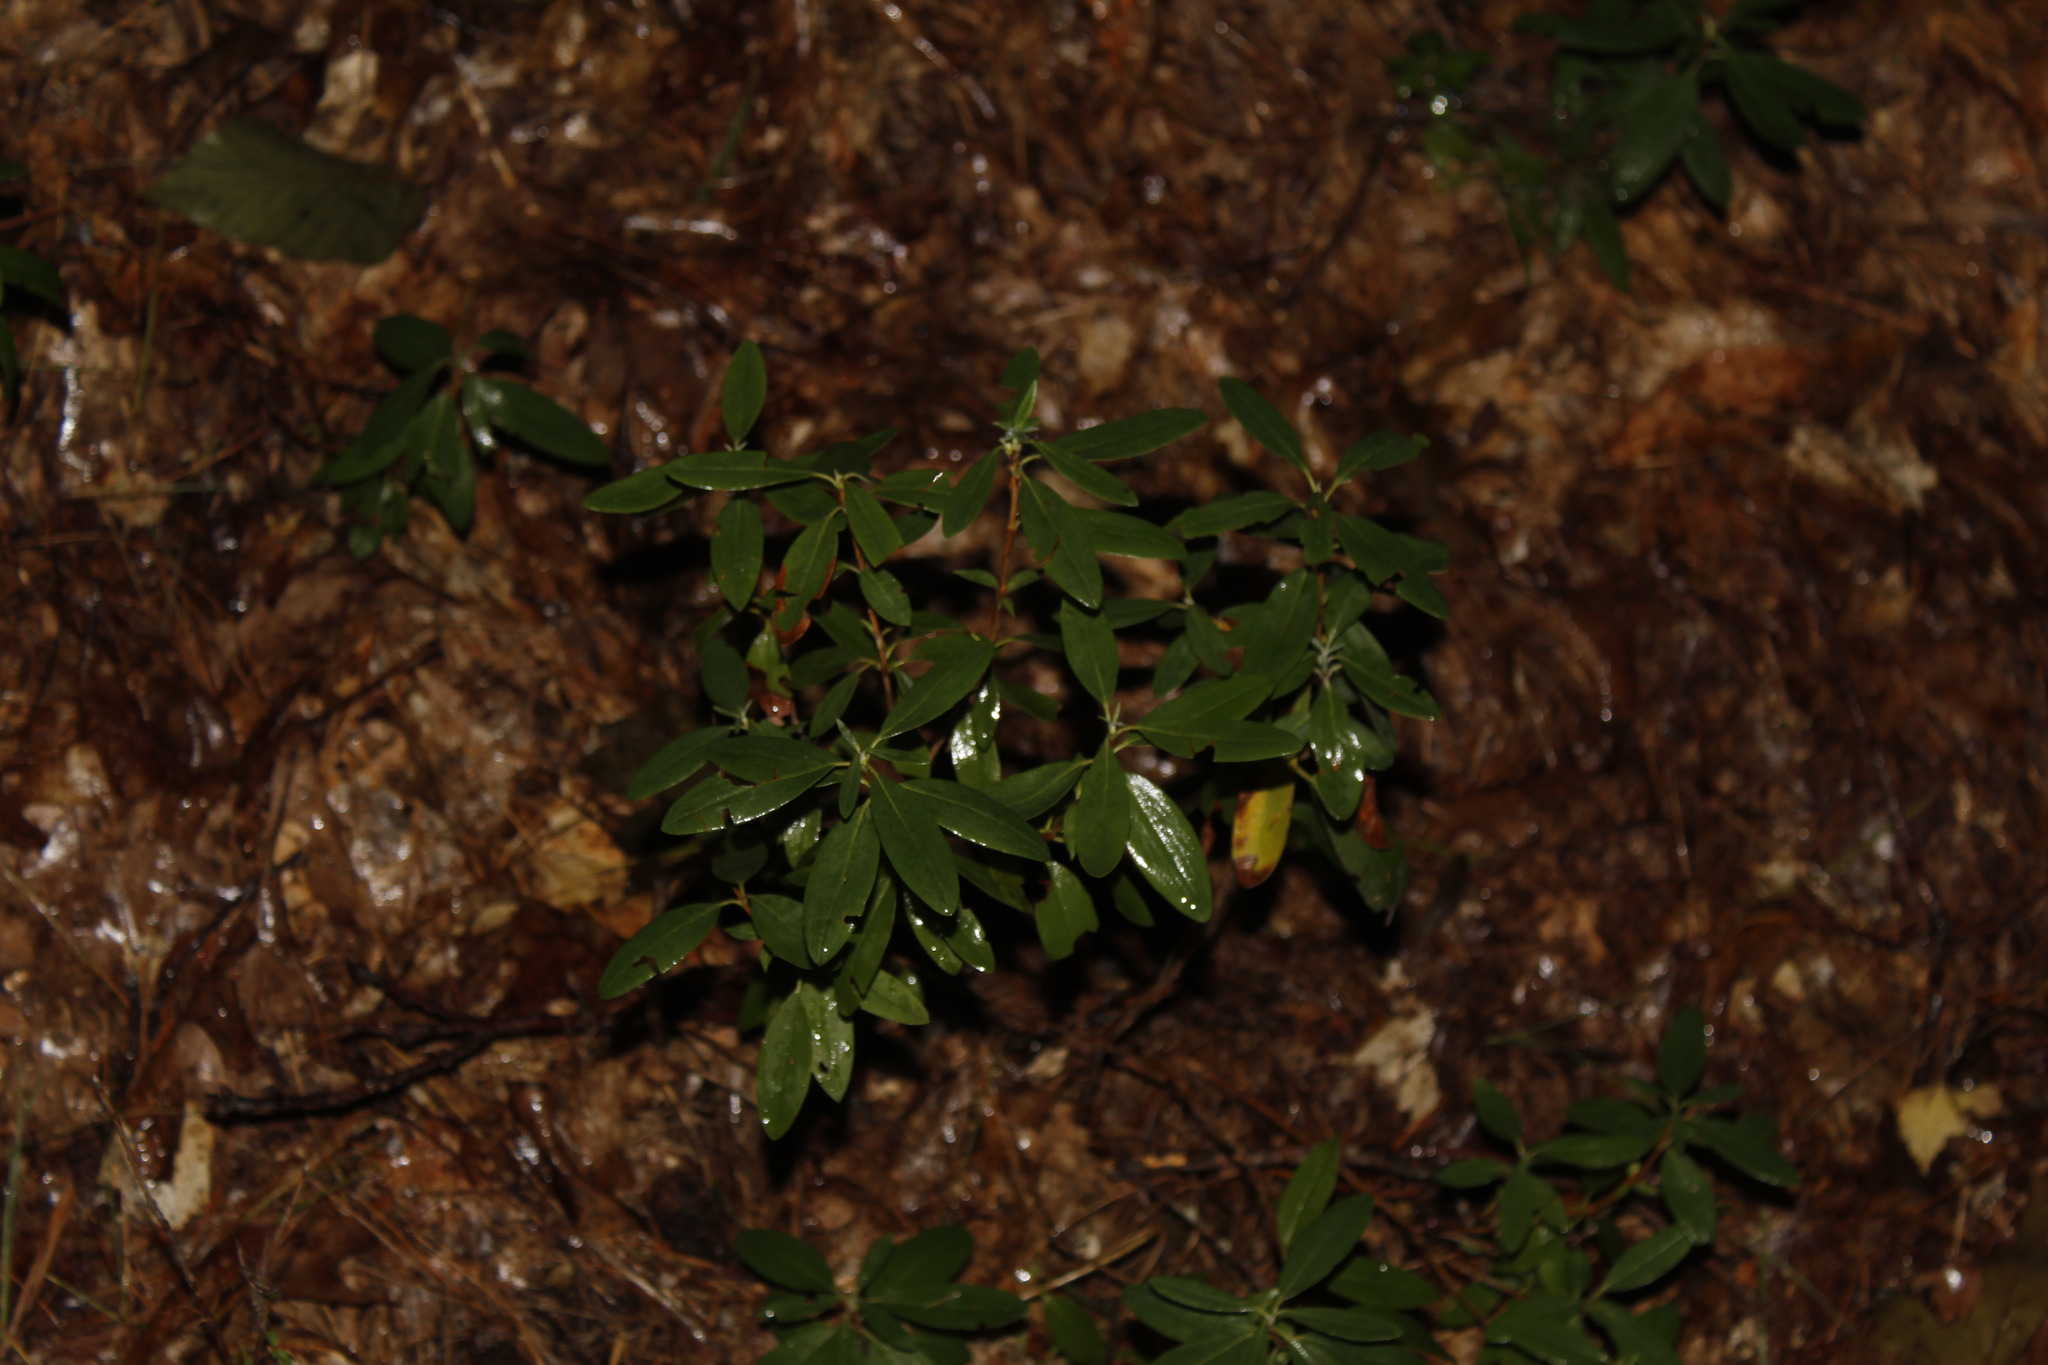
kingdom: Plantae
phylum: Tracheophyta
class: Magnoliopsida
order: Ericales
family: Ericaceae
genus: Kalmia
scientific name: Kalmia angustifolia
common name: Sheep-laurel
